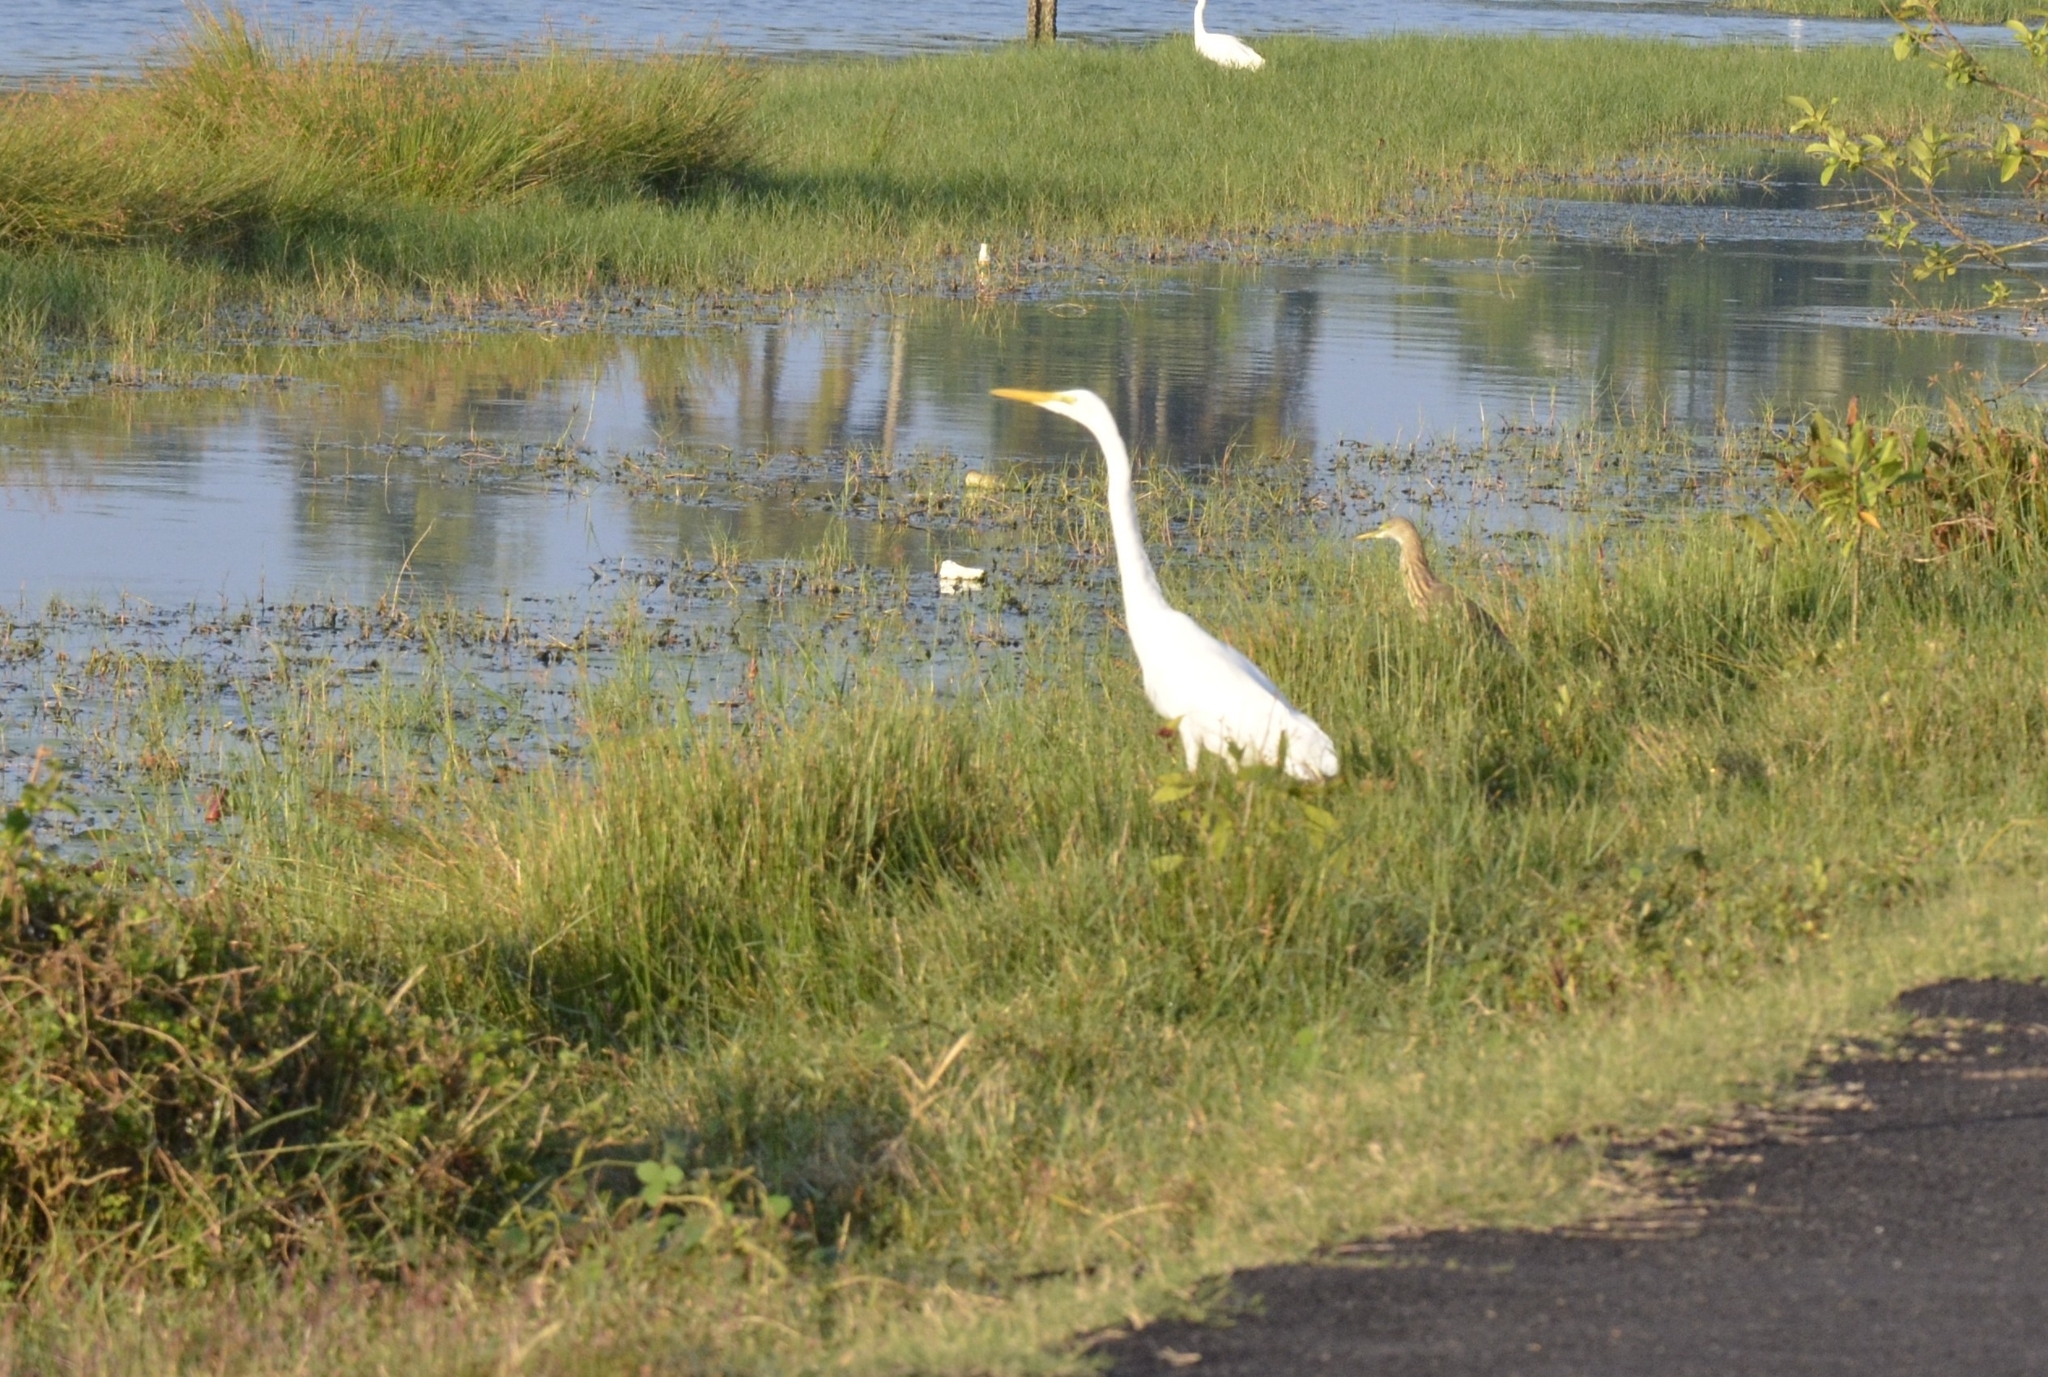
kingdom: Animalia
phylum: Chordata
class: Aves
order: Pelecaniformes
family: Ardeidae
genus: Ardea
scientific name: Ardea alba
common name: Great egret
